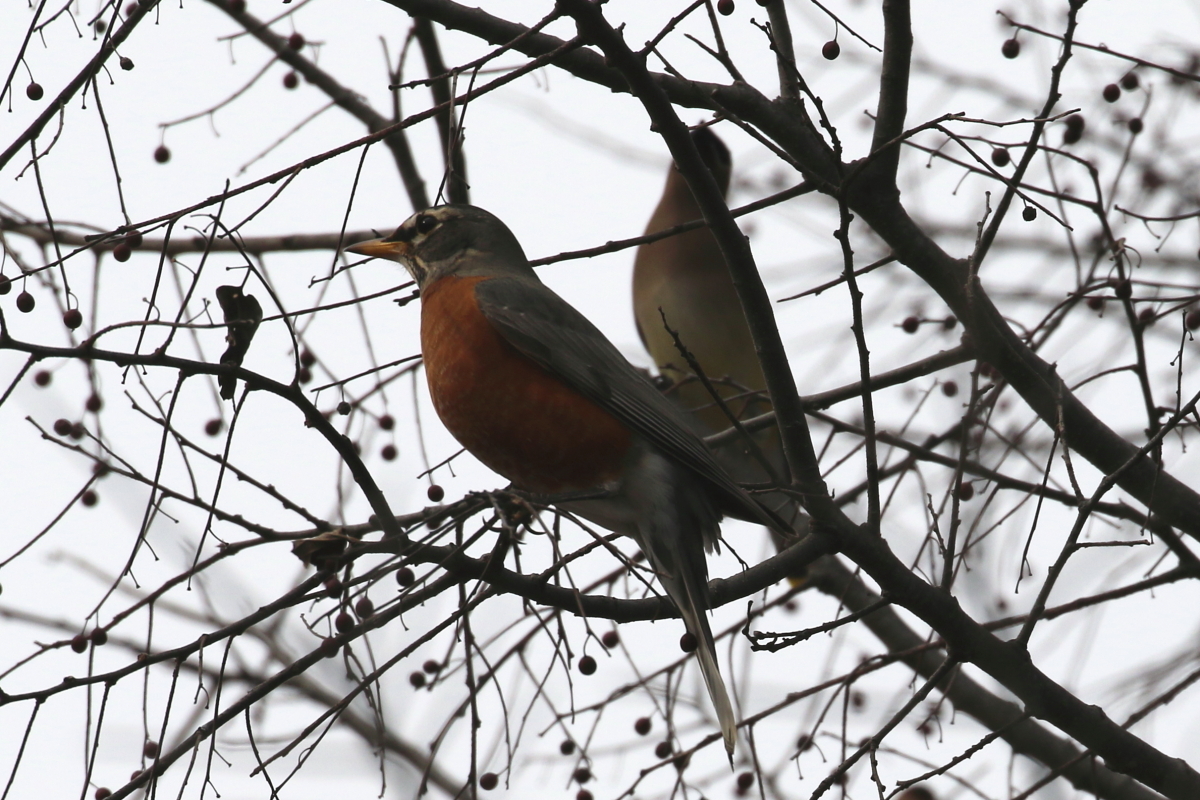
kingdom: Animalia
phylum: Chordata
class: Aves
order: Passeriformes
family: Turdidae
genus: Turdus
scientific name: Turdus migratorius
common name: American robin
